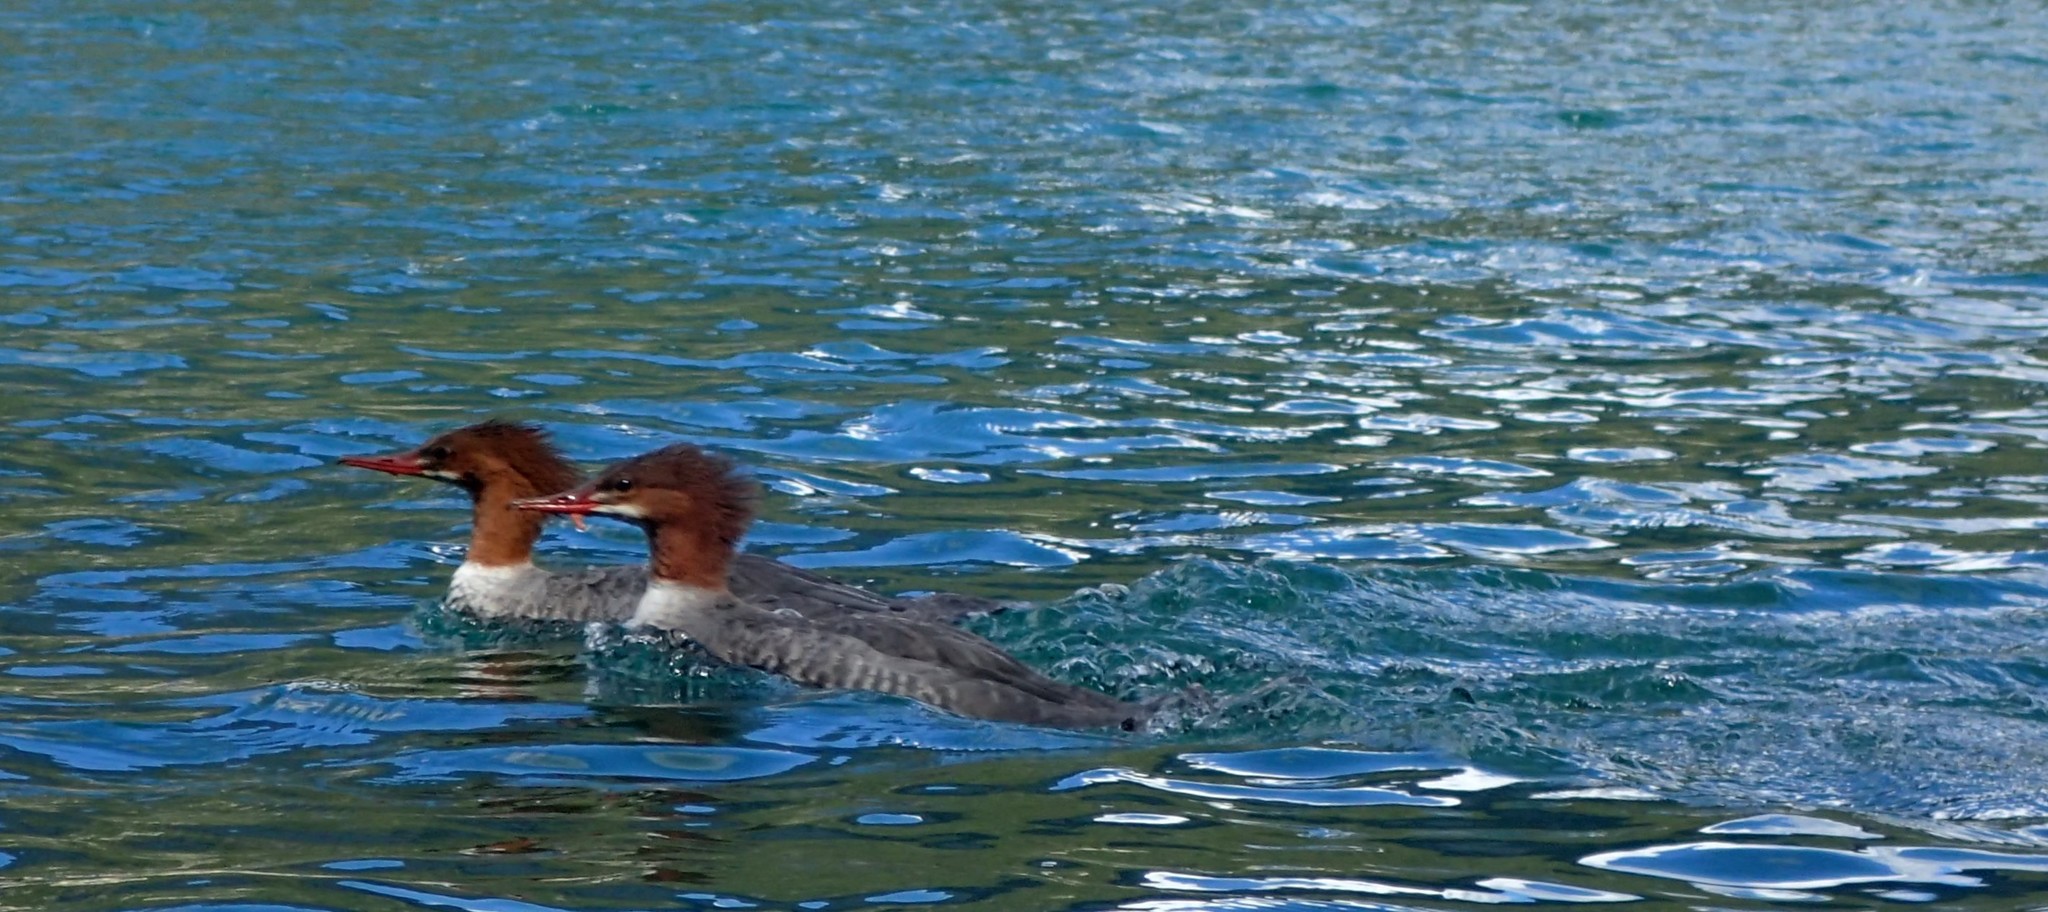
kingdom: Animalia
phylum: Chordata
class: Aves
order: Anseriformes
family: Anatidae
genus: Mergus
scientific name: Mergus merganser
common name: Common merganser
